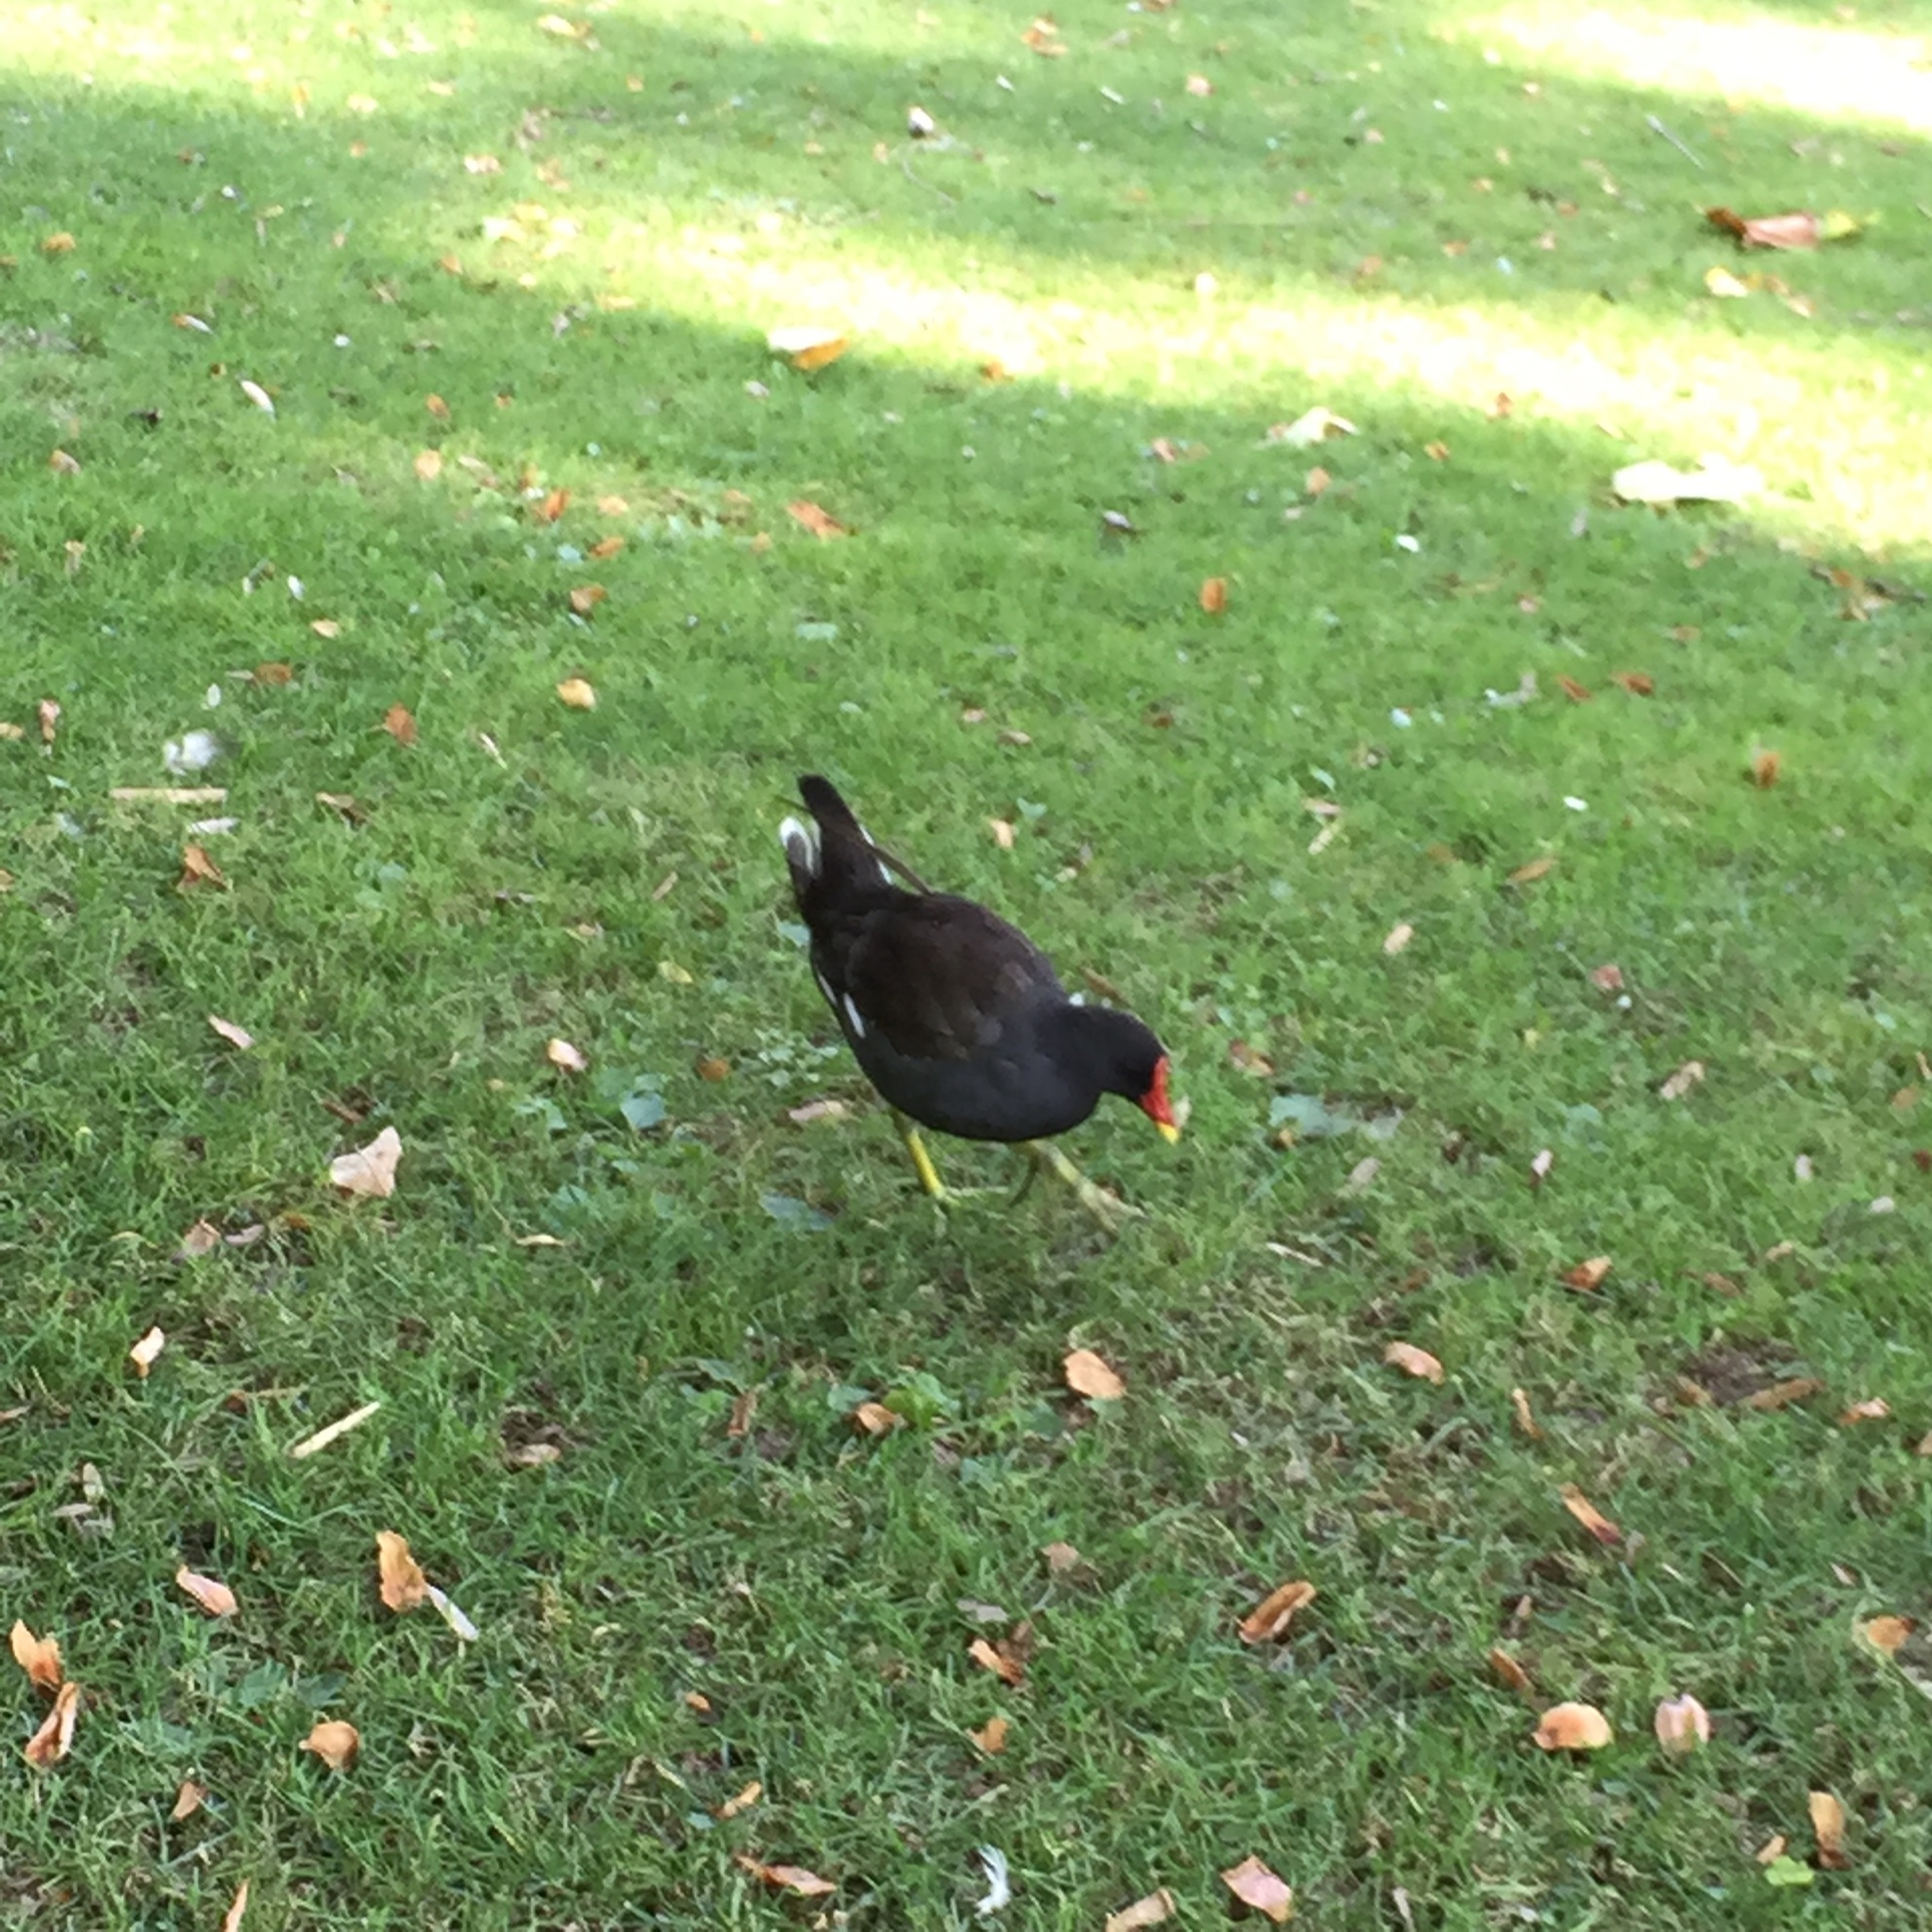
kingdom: Animalia
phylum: Chordata
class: Aves
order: Gruiformes
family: Rallidae
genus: Gallinula
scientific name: Gallinula chloropus
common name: Common moorhen
